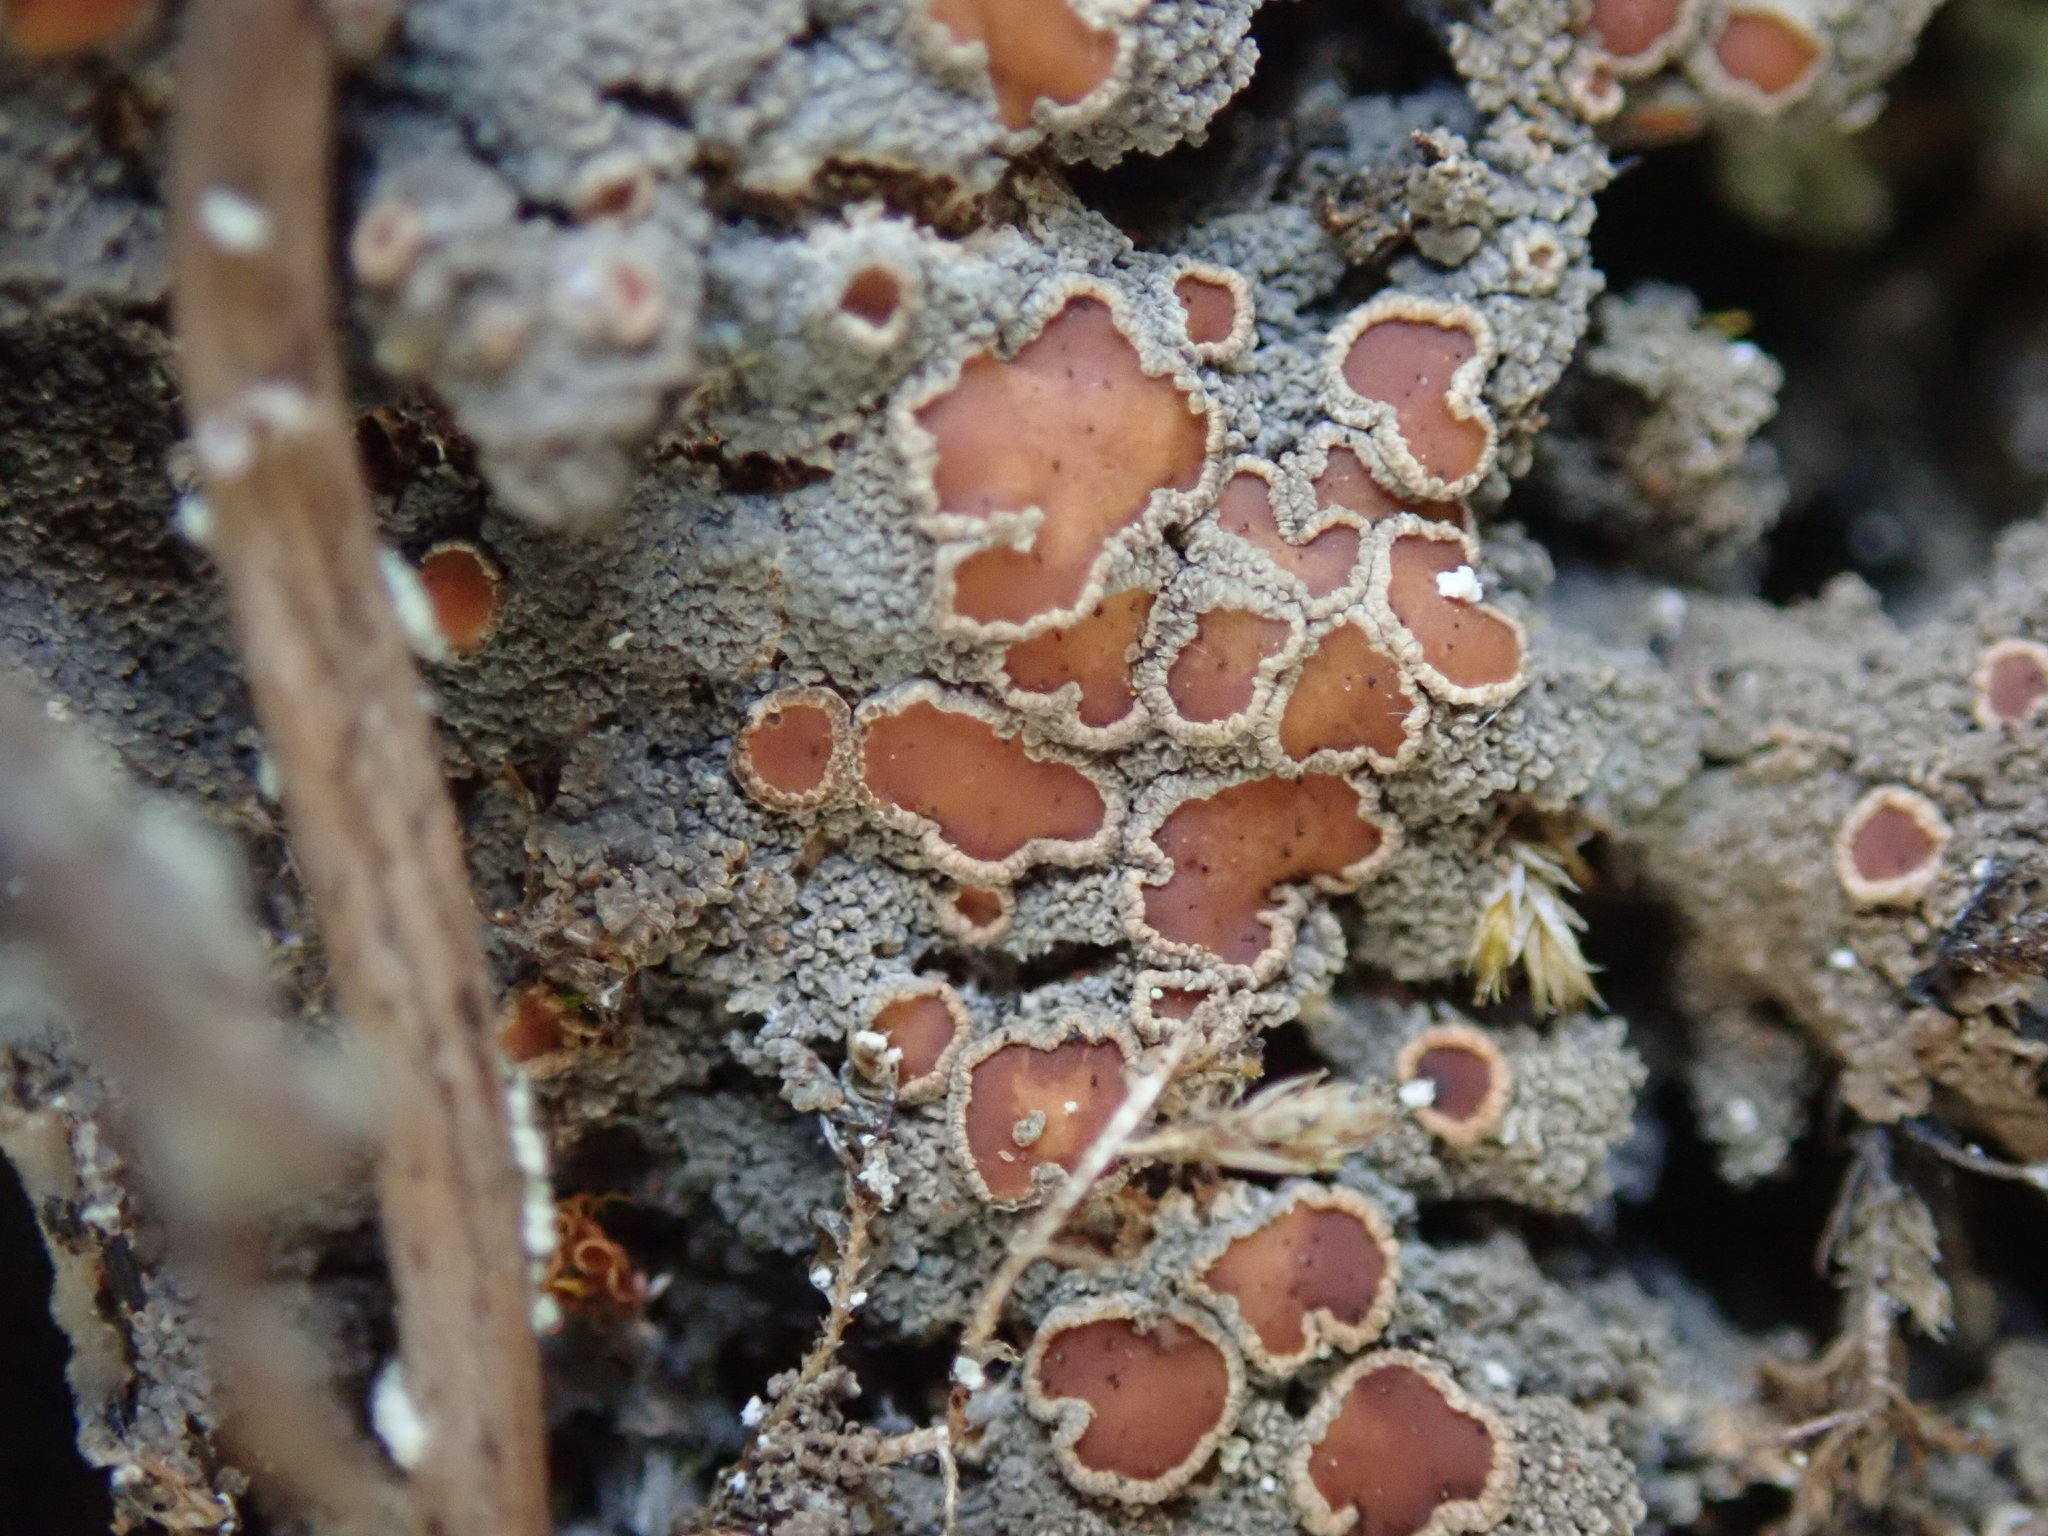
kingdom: Fungi
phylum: Ascomycota
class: Lecanoromycetes
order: Peltigerales
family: Pannariaceae
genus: Protopannaria
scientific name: Protopannaria pezizoides
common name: Brown-gray m oss-shingle
